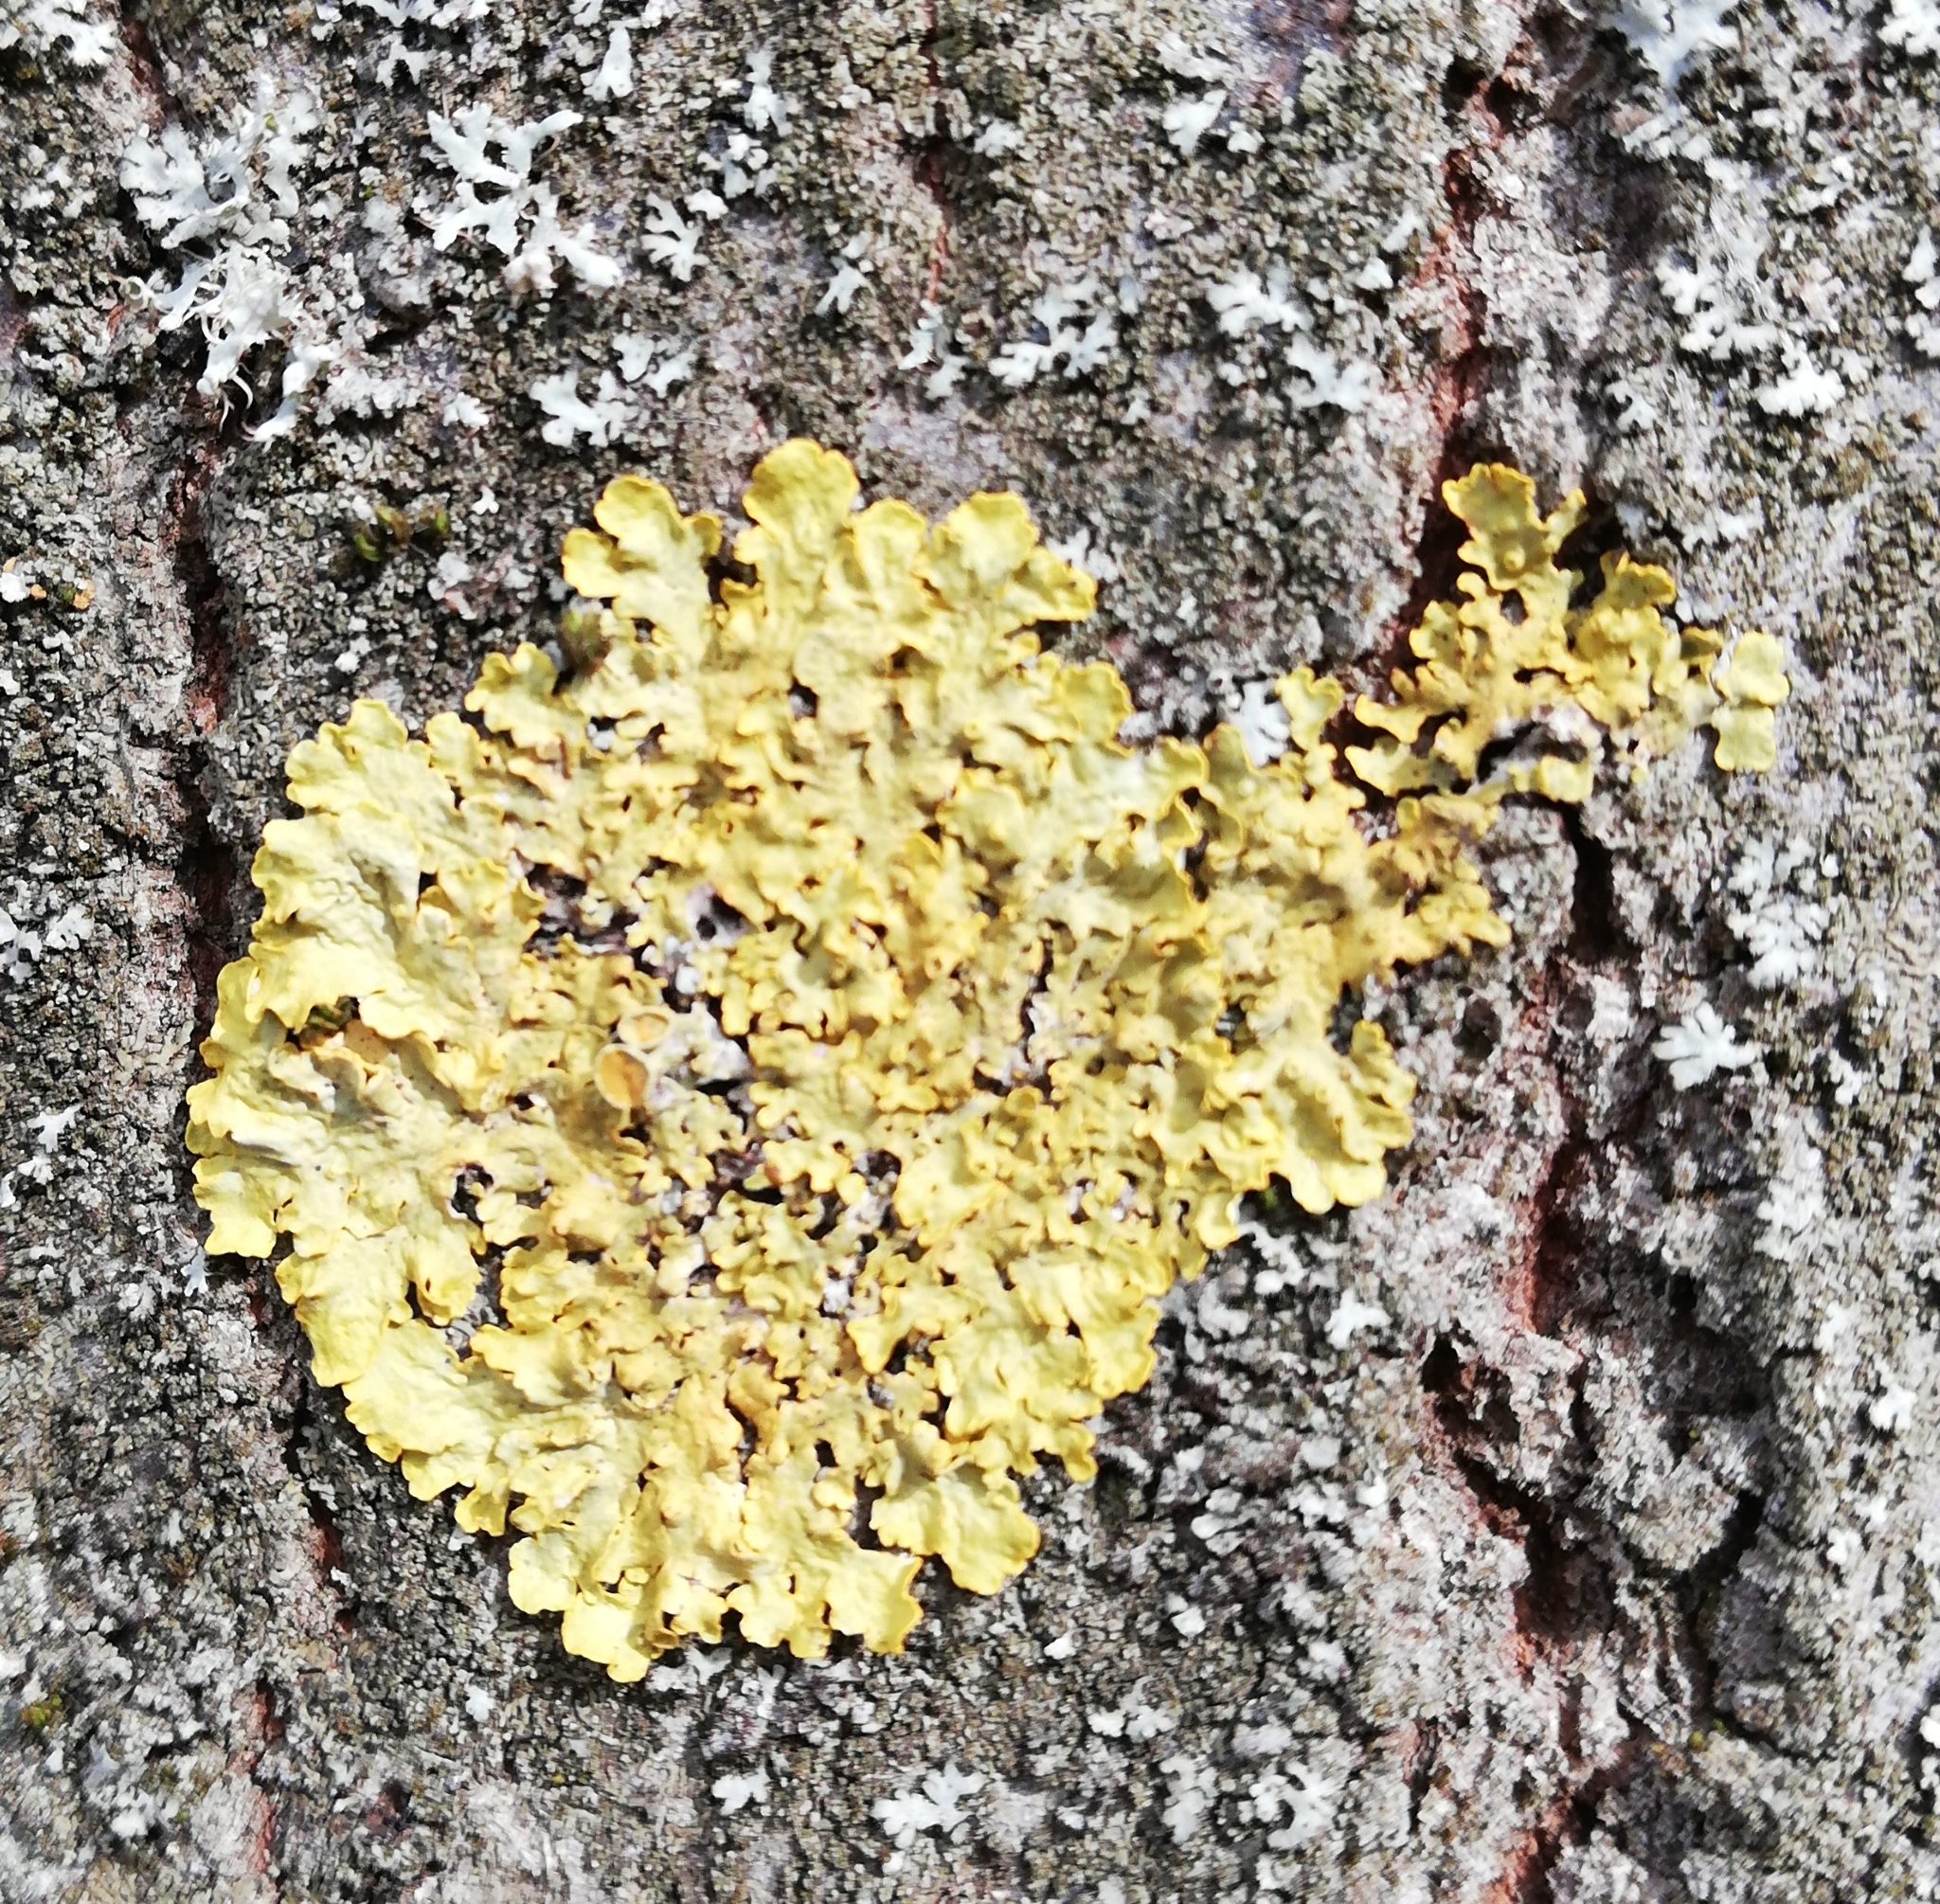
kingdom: Fungi
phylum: Ascomycota
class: Lecanoromycetes
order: Teloschistales
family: Teloschistaceae
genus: Xanthoria
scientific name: Xanthoria parietina
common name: Common orange lichen
